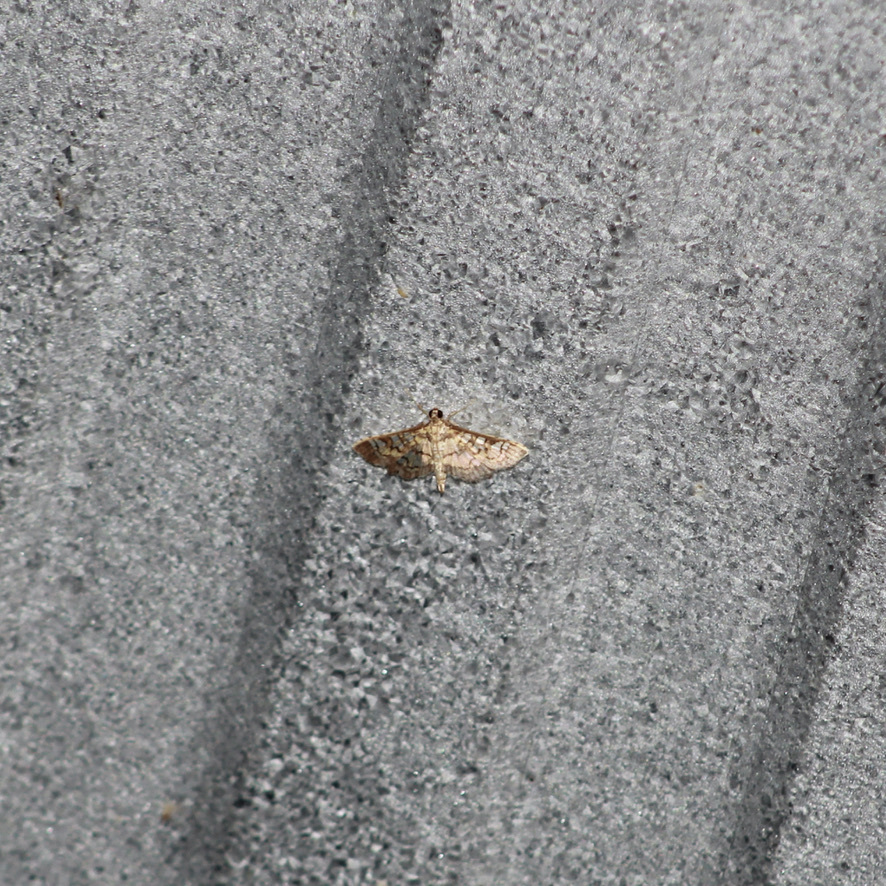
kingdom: Animalia
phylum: Arthropoda
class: Insecta
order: Lepidoptera
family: Crambidae
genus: Samea
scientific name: Samea ecclesialis
